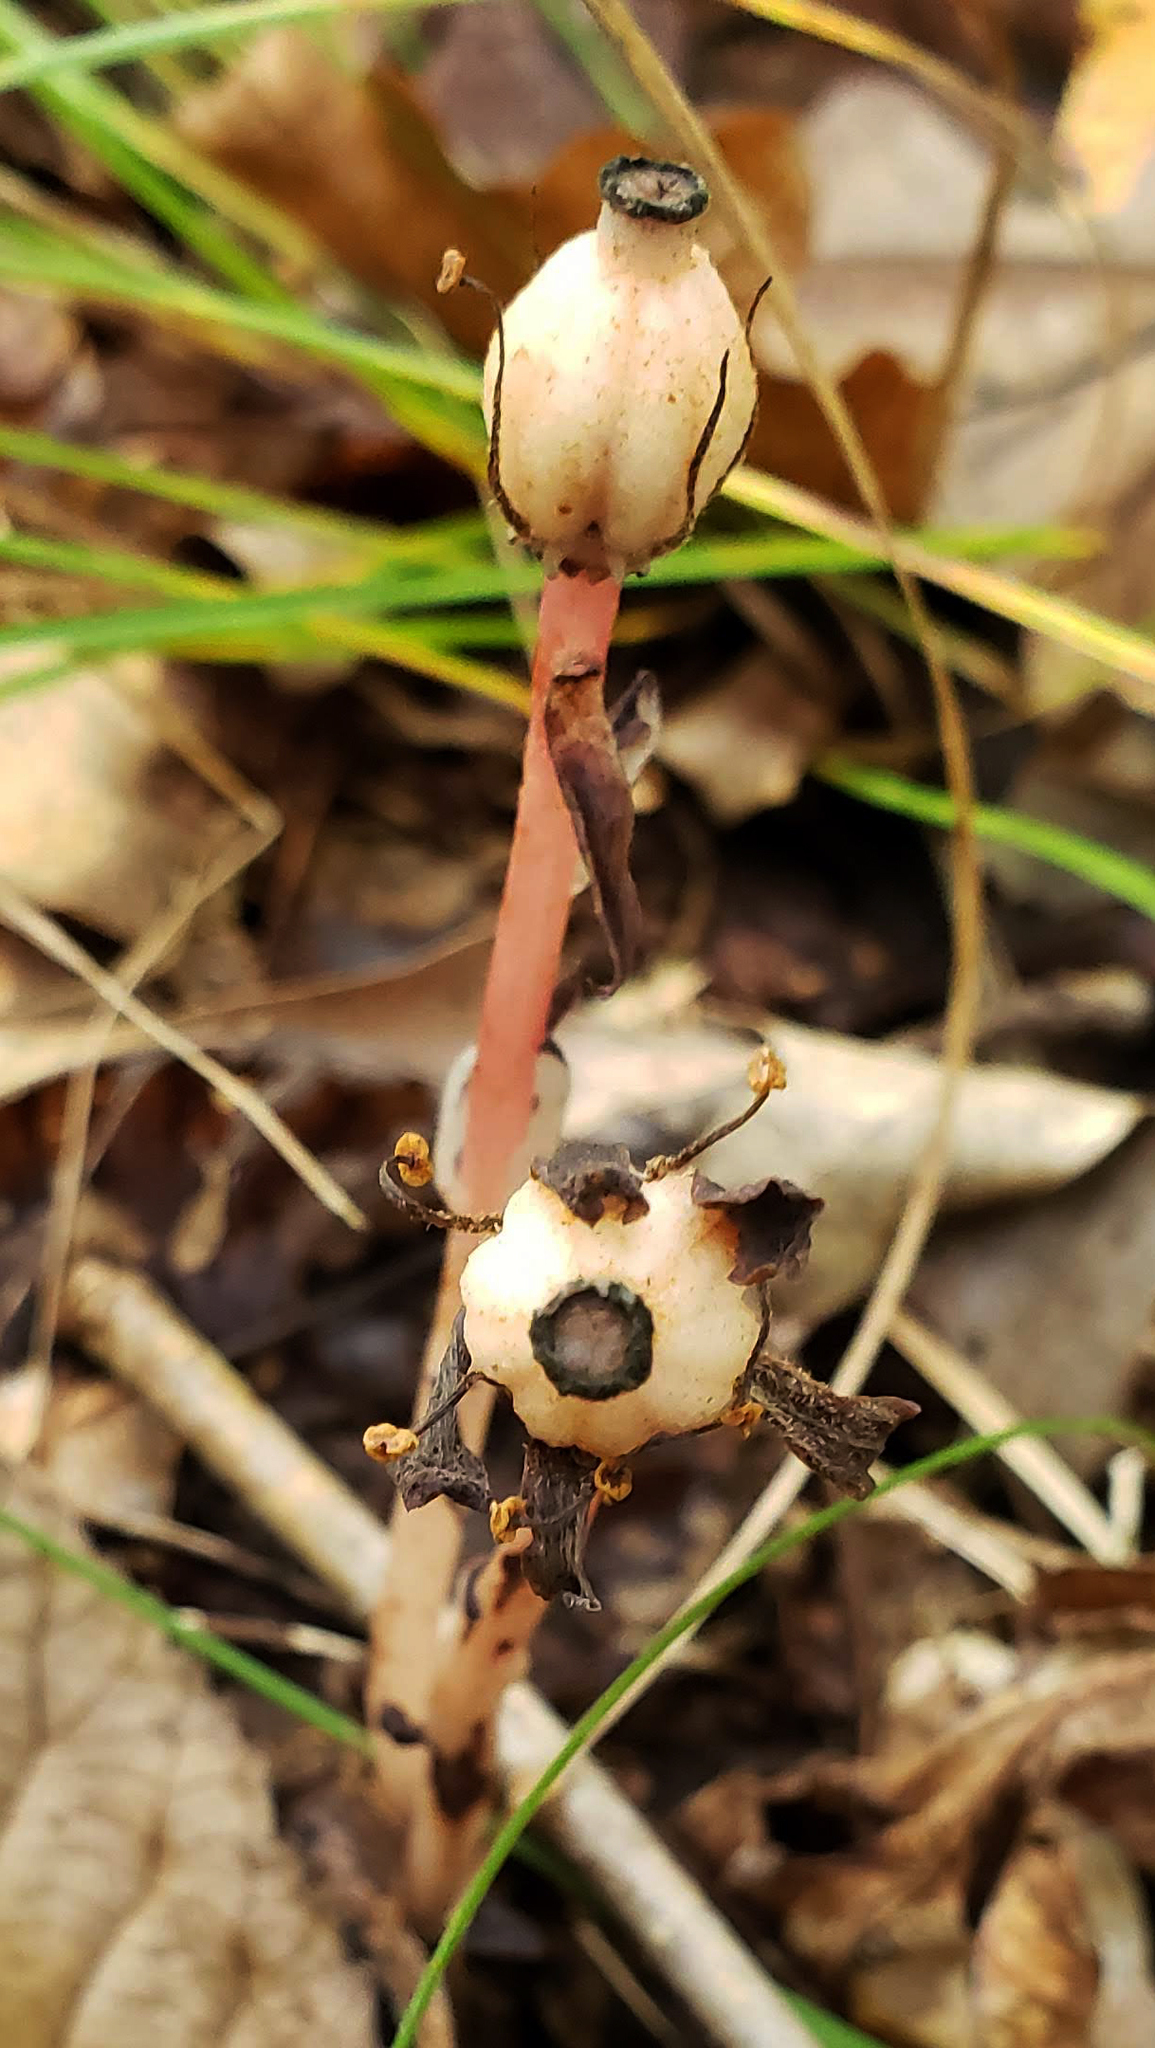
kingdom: Plantae
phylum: Tracheophyta
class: Magnoliopsida
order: Ericales
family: Ericaceae
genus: Monotropa
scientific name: Monotropa uniflora
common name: Convulsion root
